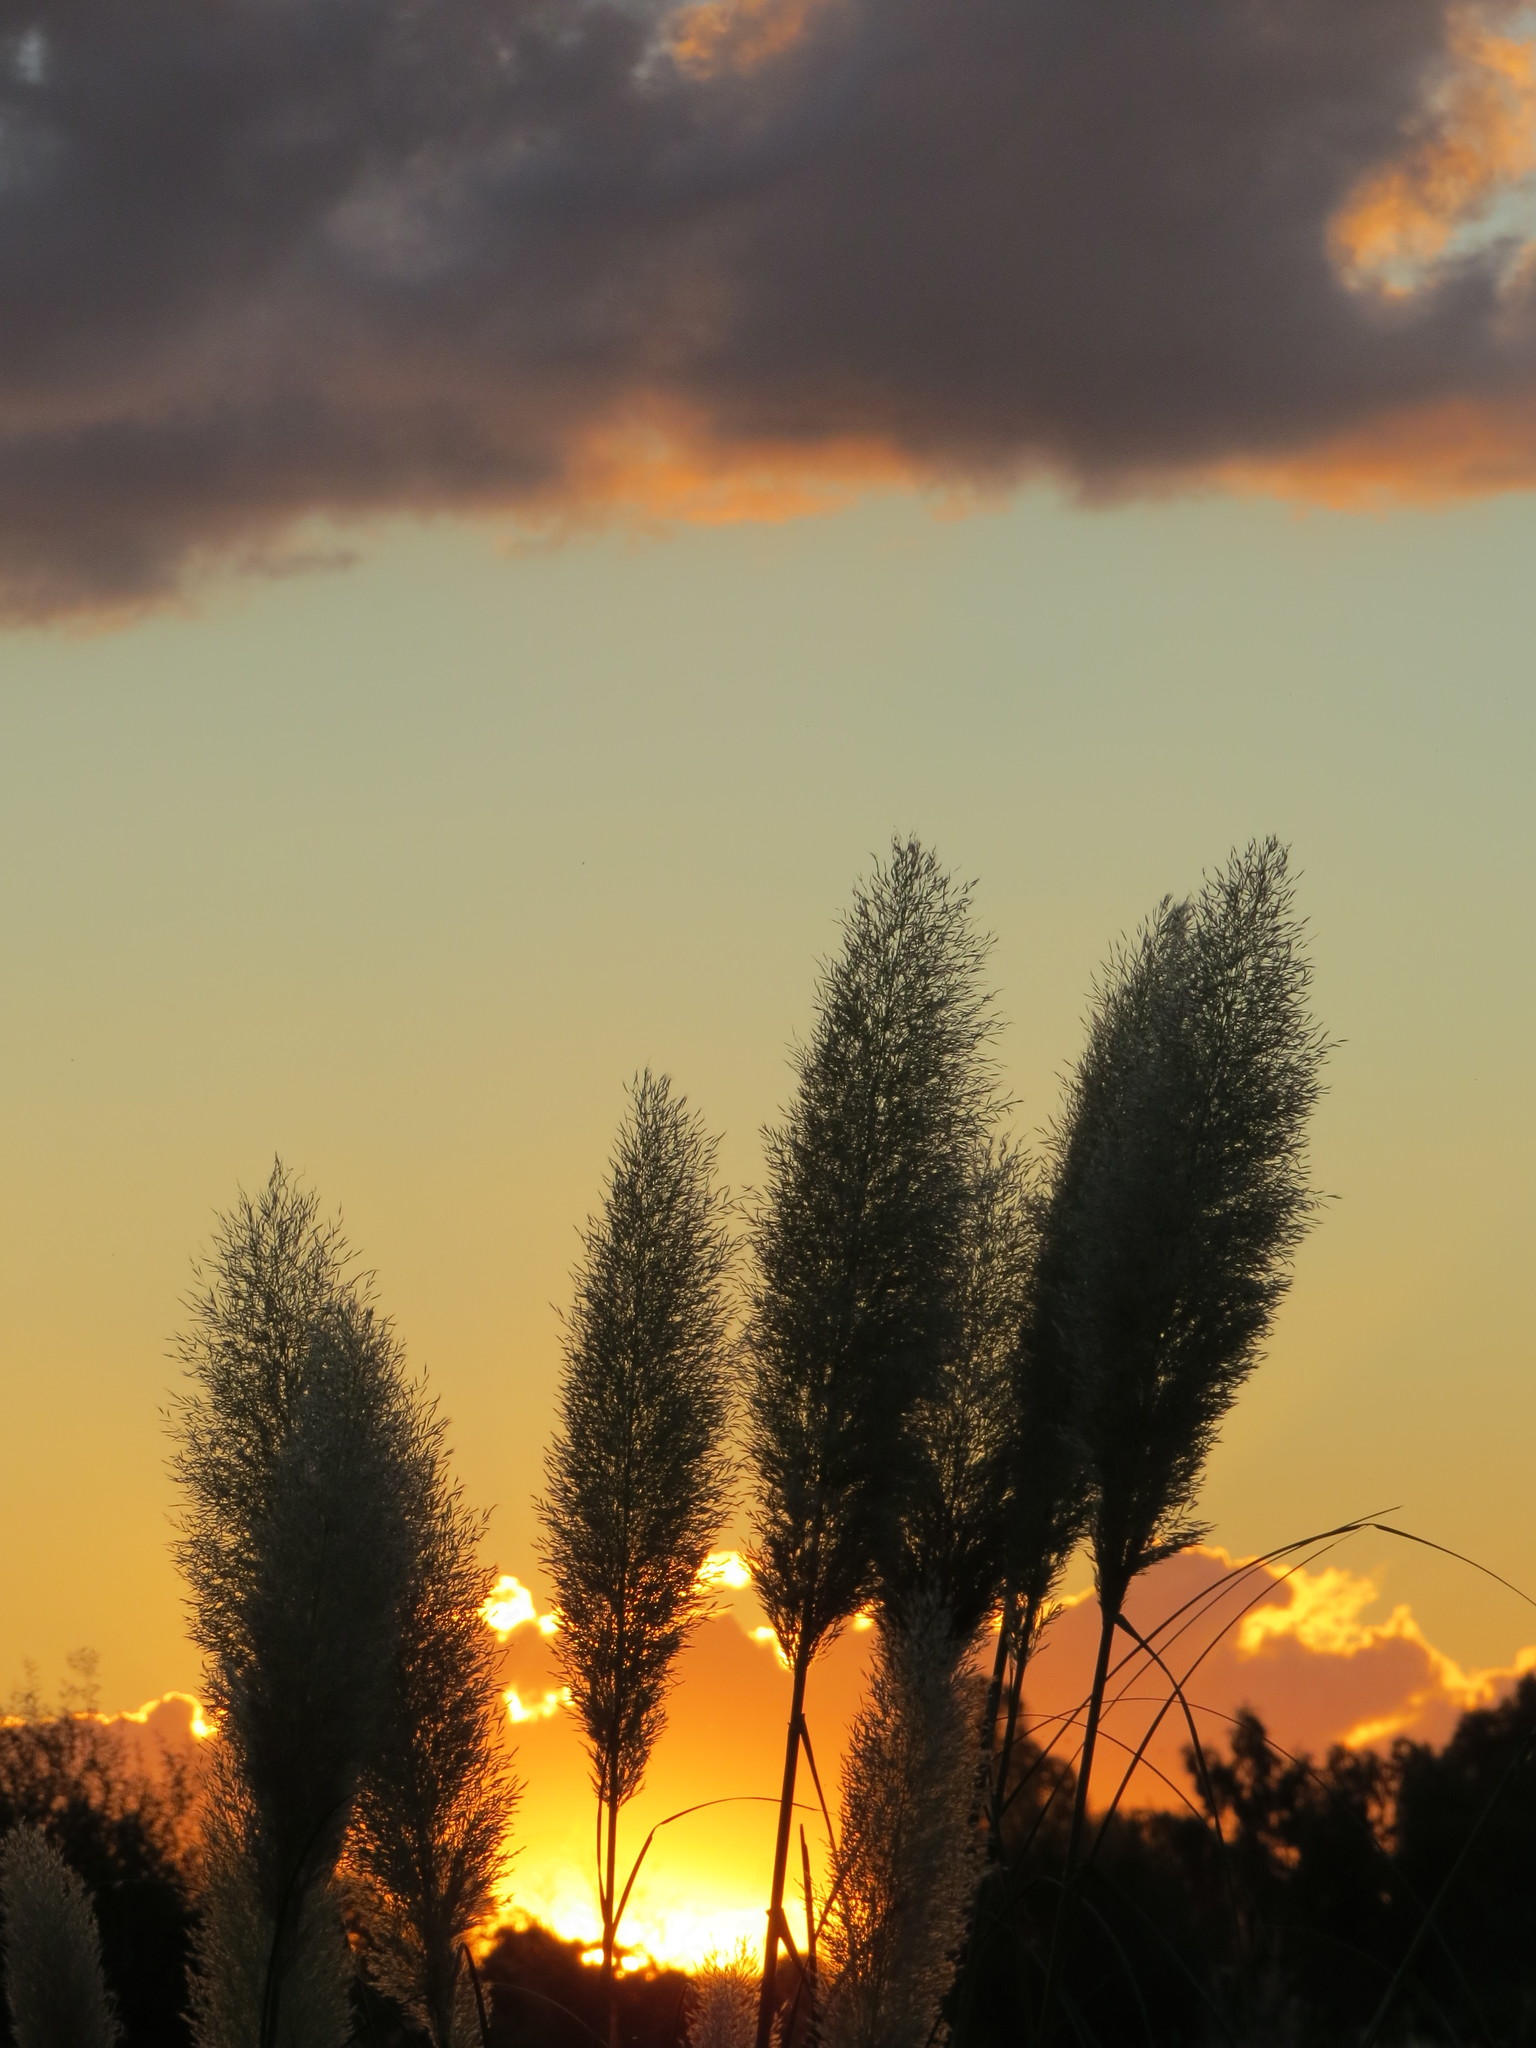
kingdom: Plantae
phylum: Tracheophyta
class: Liliopsida
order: Poales
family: Poaceae
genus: Cortaderia
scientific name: Cortaderia selloana
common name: Uruguayan pampas grass
